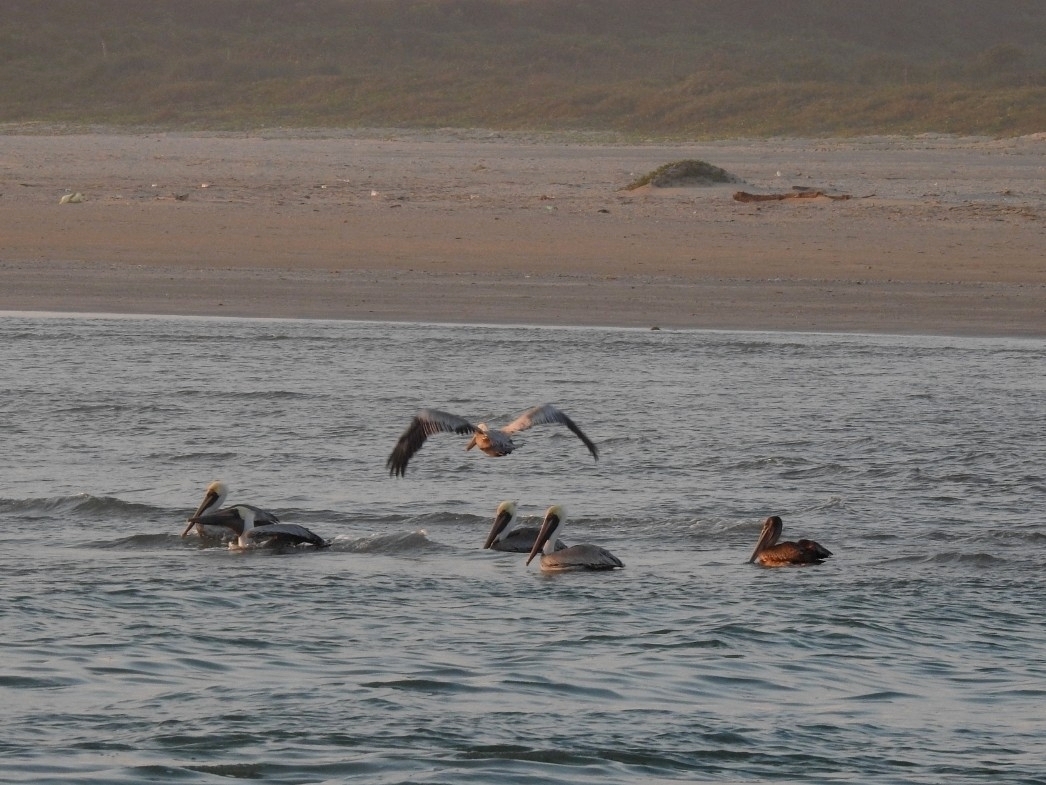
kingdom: Animalia
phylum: Chordata
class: Aves
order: Pelecaniformes
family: Pelecanidae
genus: Pelecanus
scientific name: Pelecanus occidentalis
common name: Brown pelican
